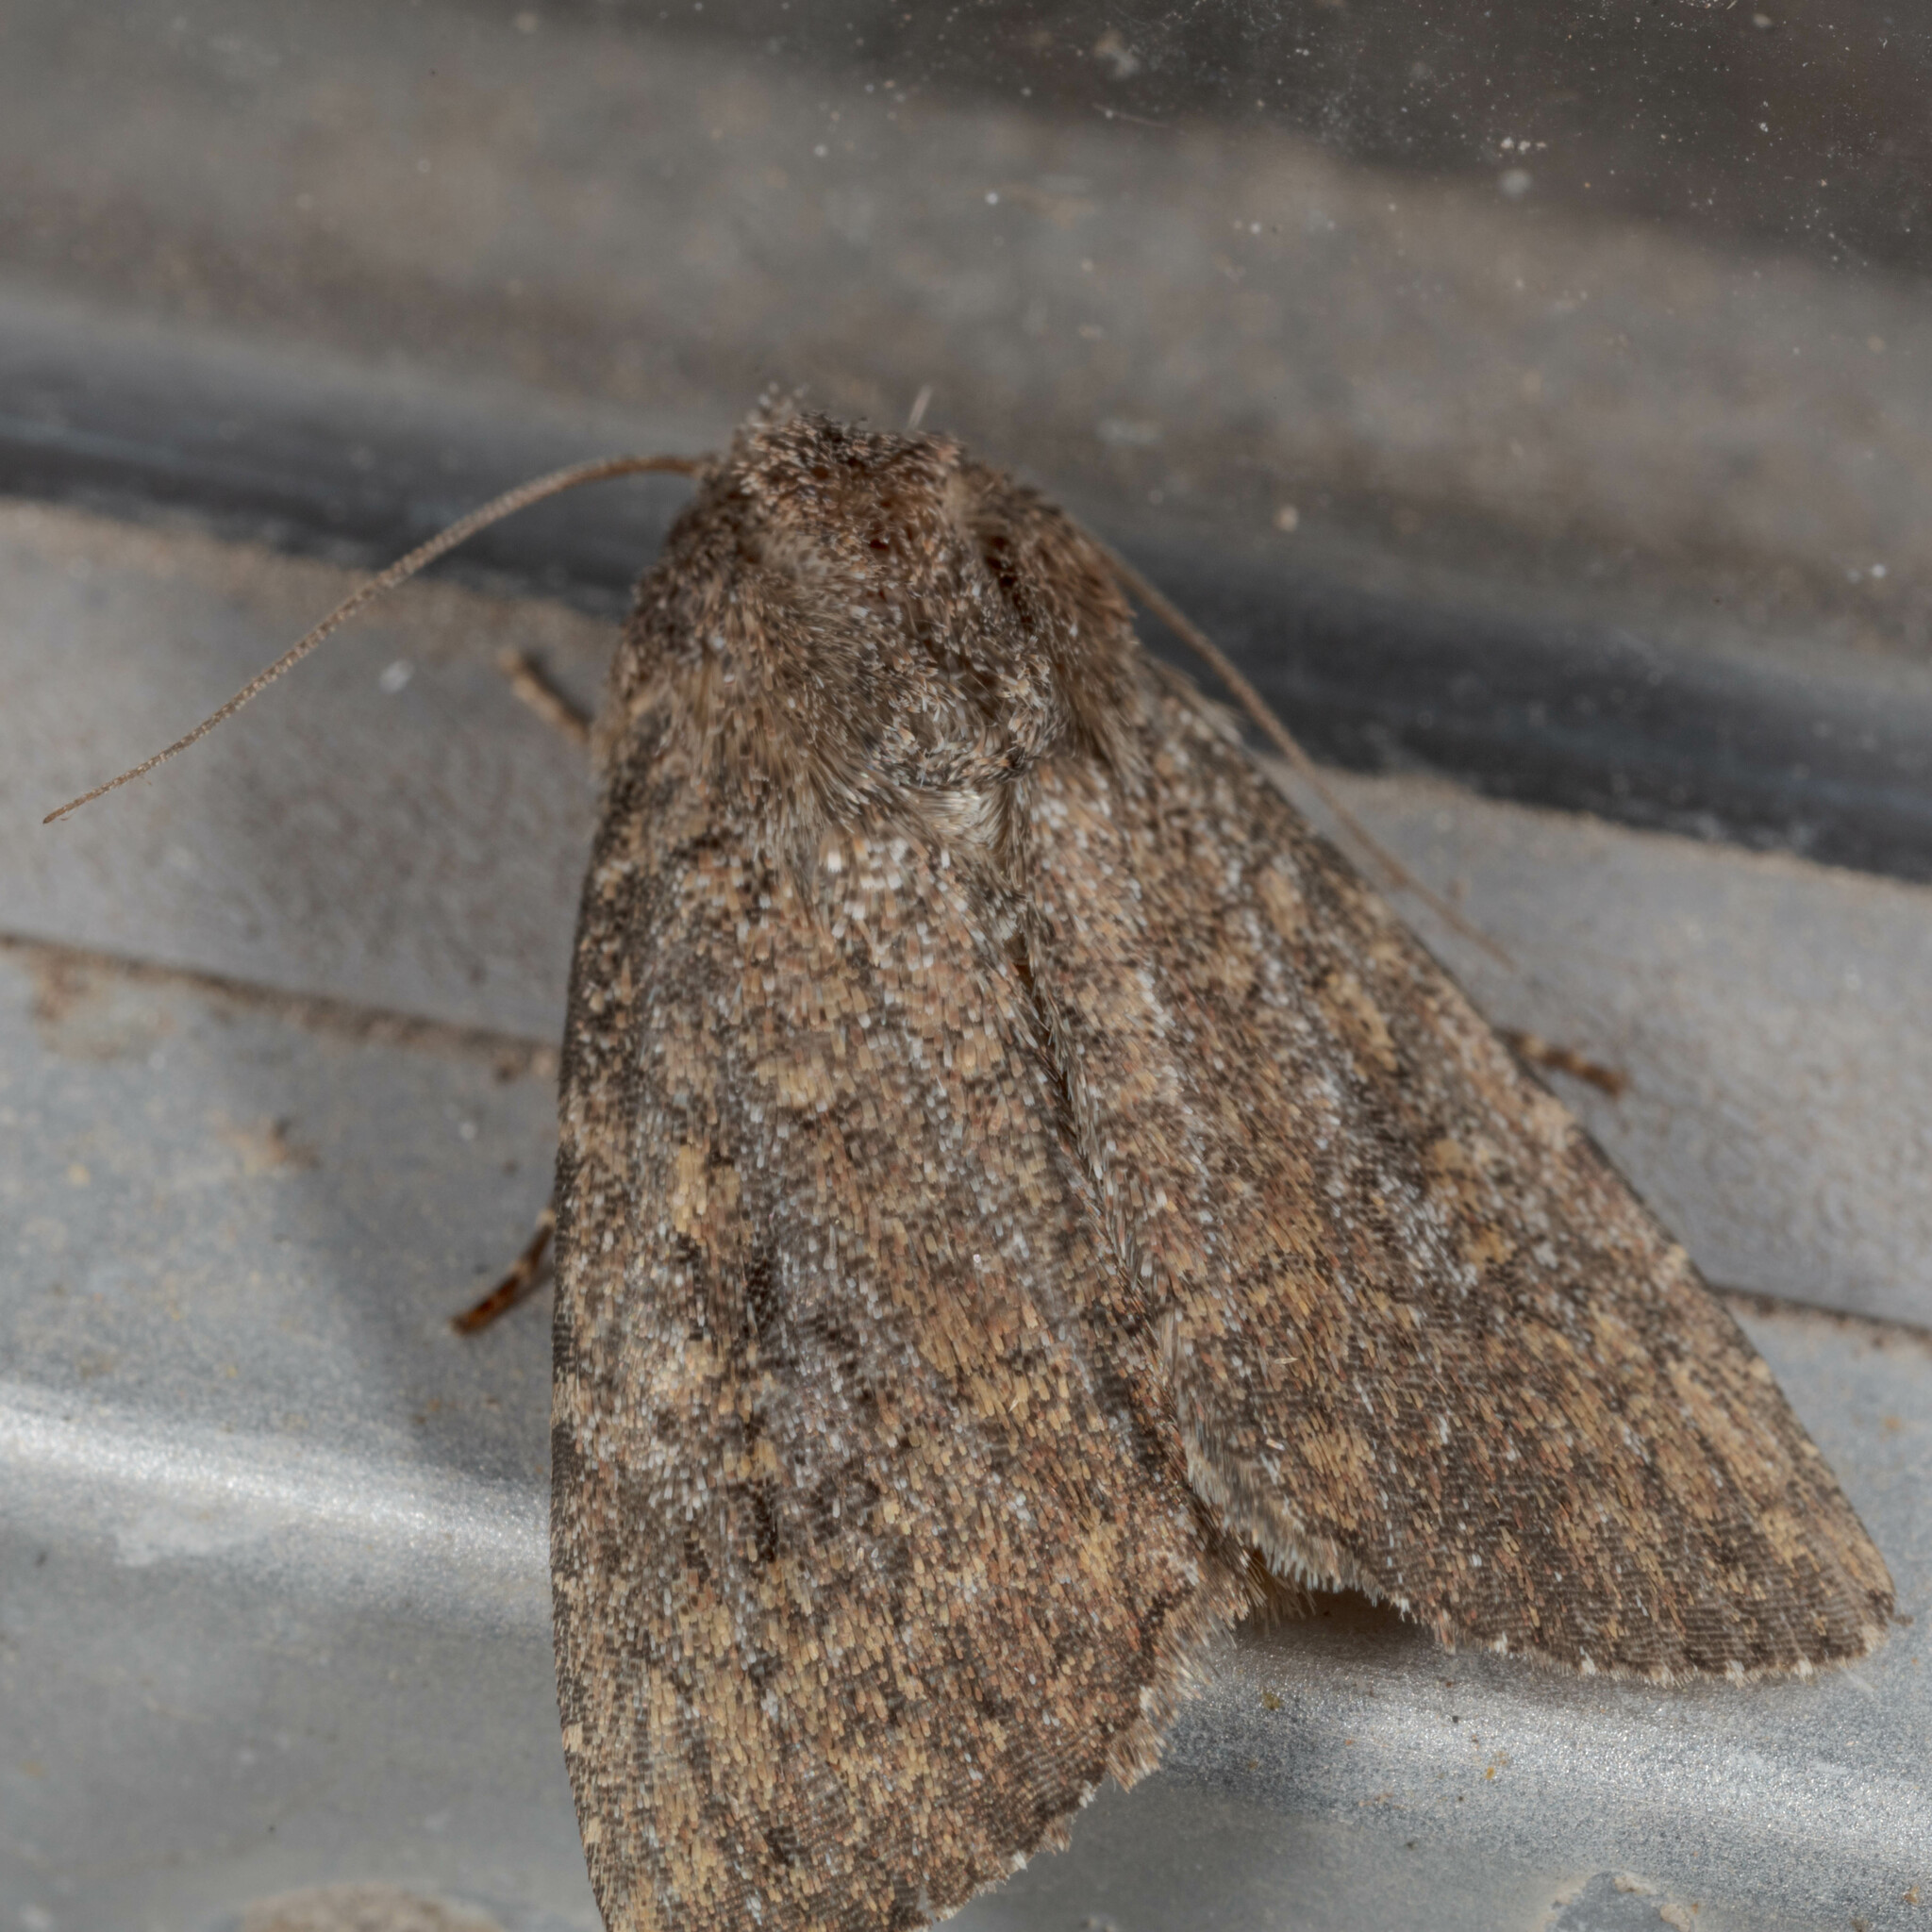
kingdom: Animalia
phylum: Arthropoda
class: Insecta
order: Lepidoptera
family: Noctuidae
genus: Condica
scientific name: Condica sutor
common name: Cobbler moth
